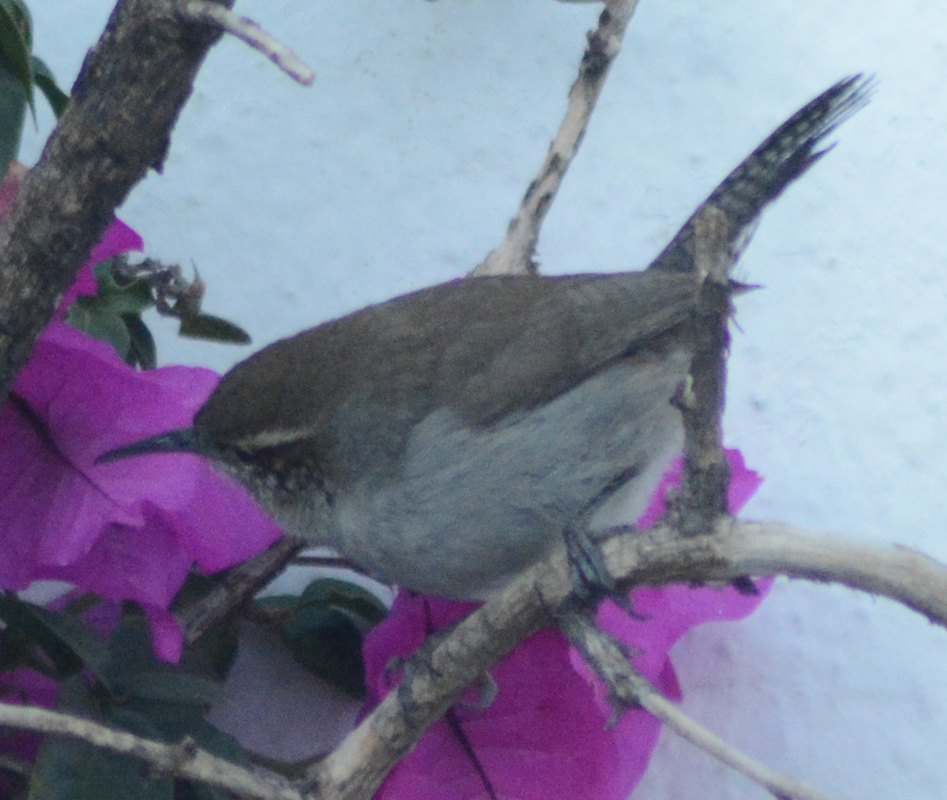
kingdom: Animalia
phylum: Chordata
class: Aves
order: Passeriformes
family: Troglodytidae
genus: Thryomanes
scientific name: Thryomanes bewickii
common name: Bewick's wren
